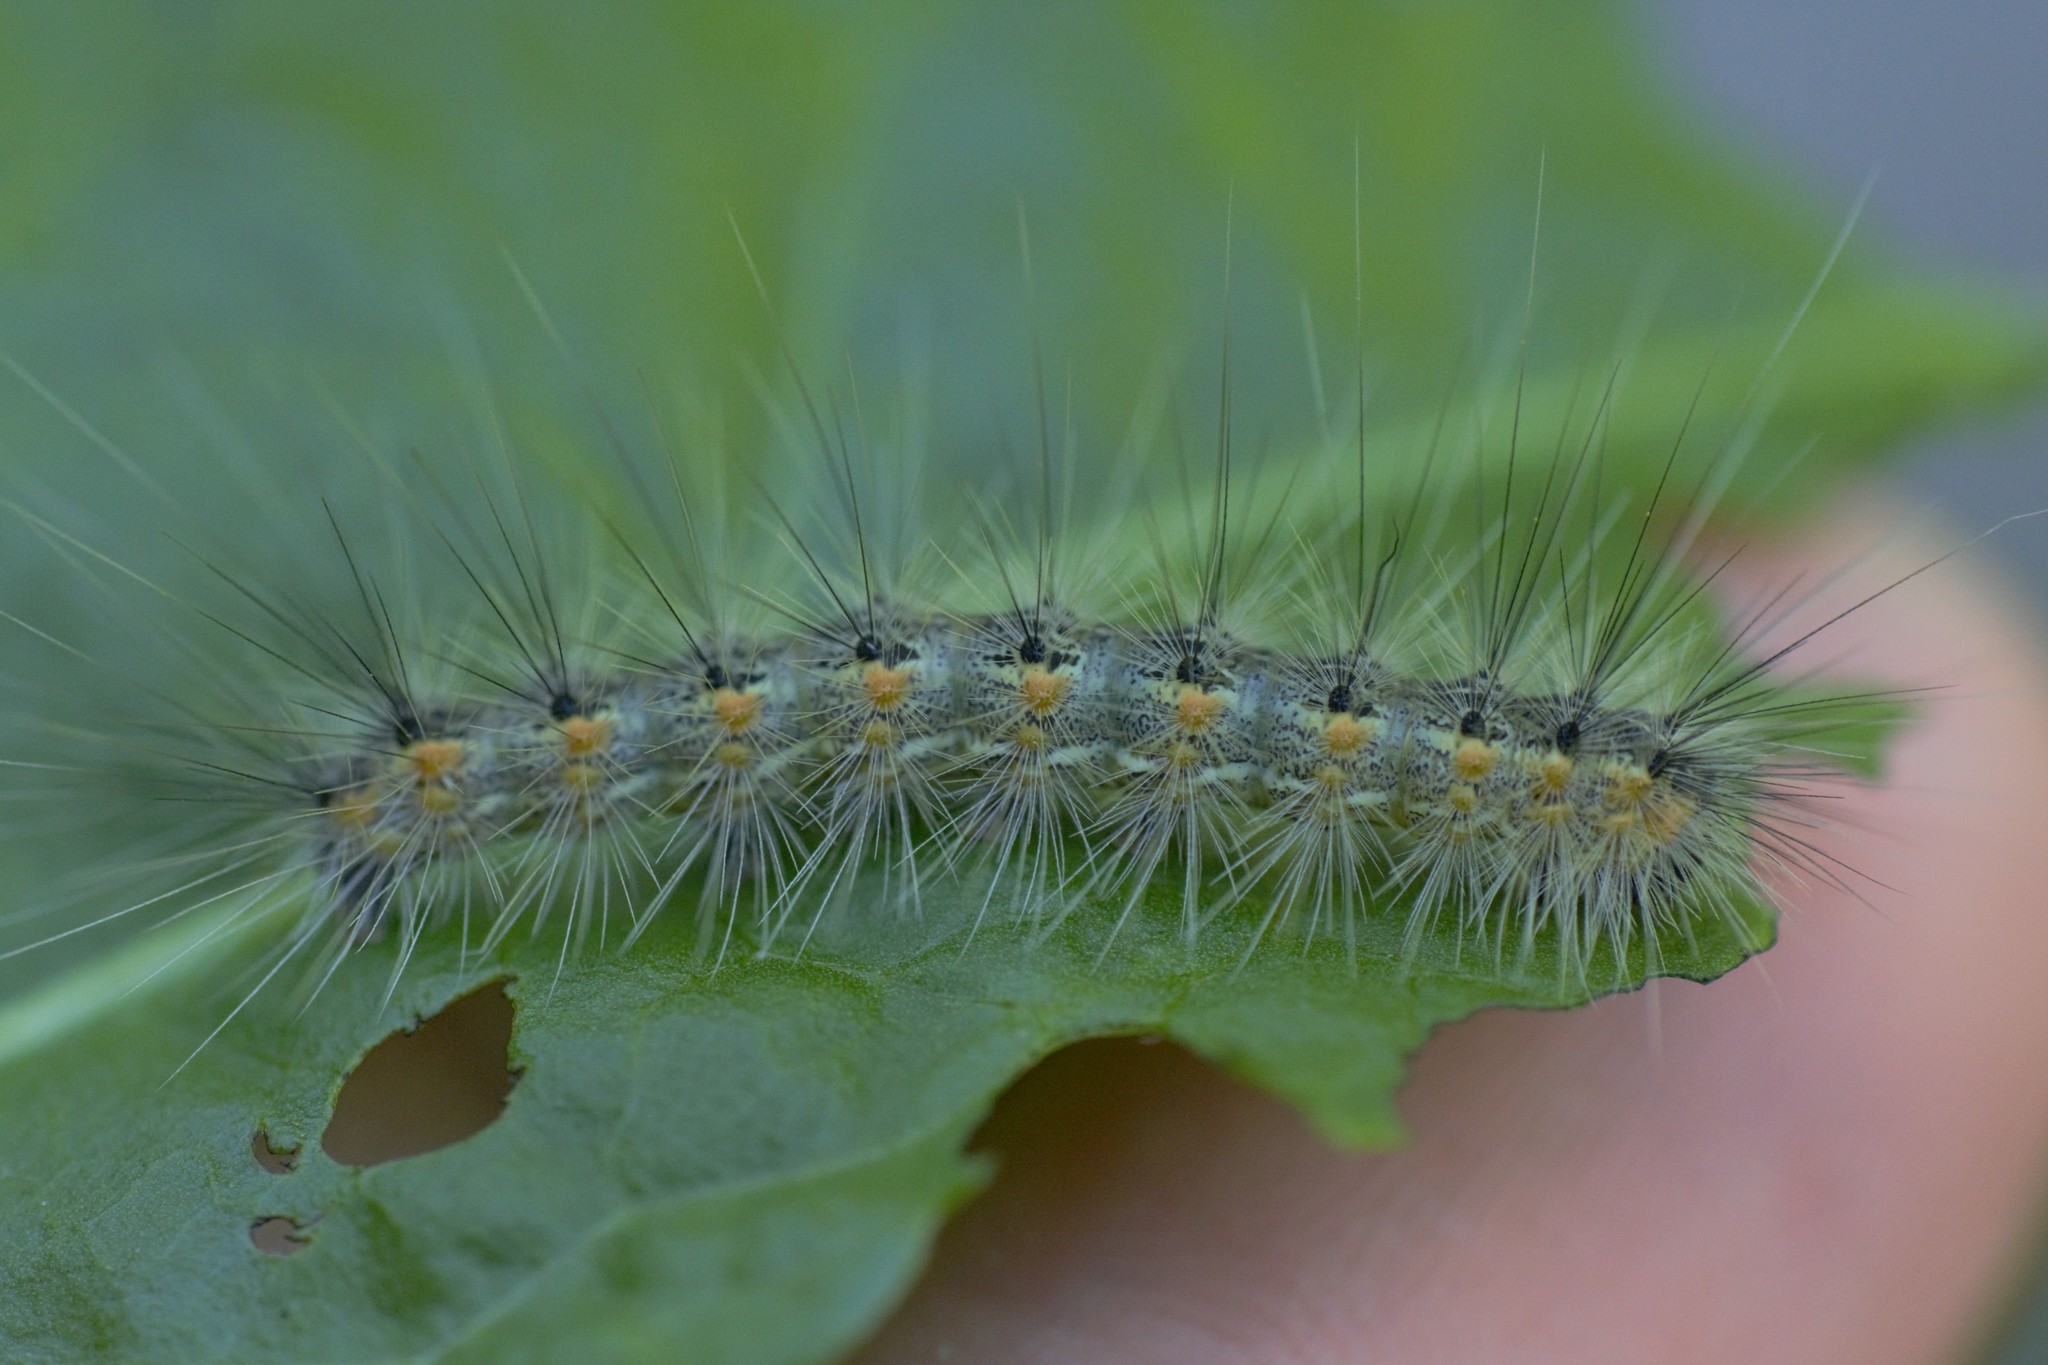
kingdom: Animalia
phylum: Arthropoda
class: Insecta
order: Lepidoptera
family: Erebidae
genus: Hyphantria
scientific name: Hyphantria cunea
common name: American white moth
